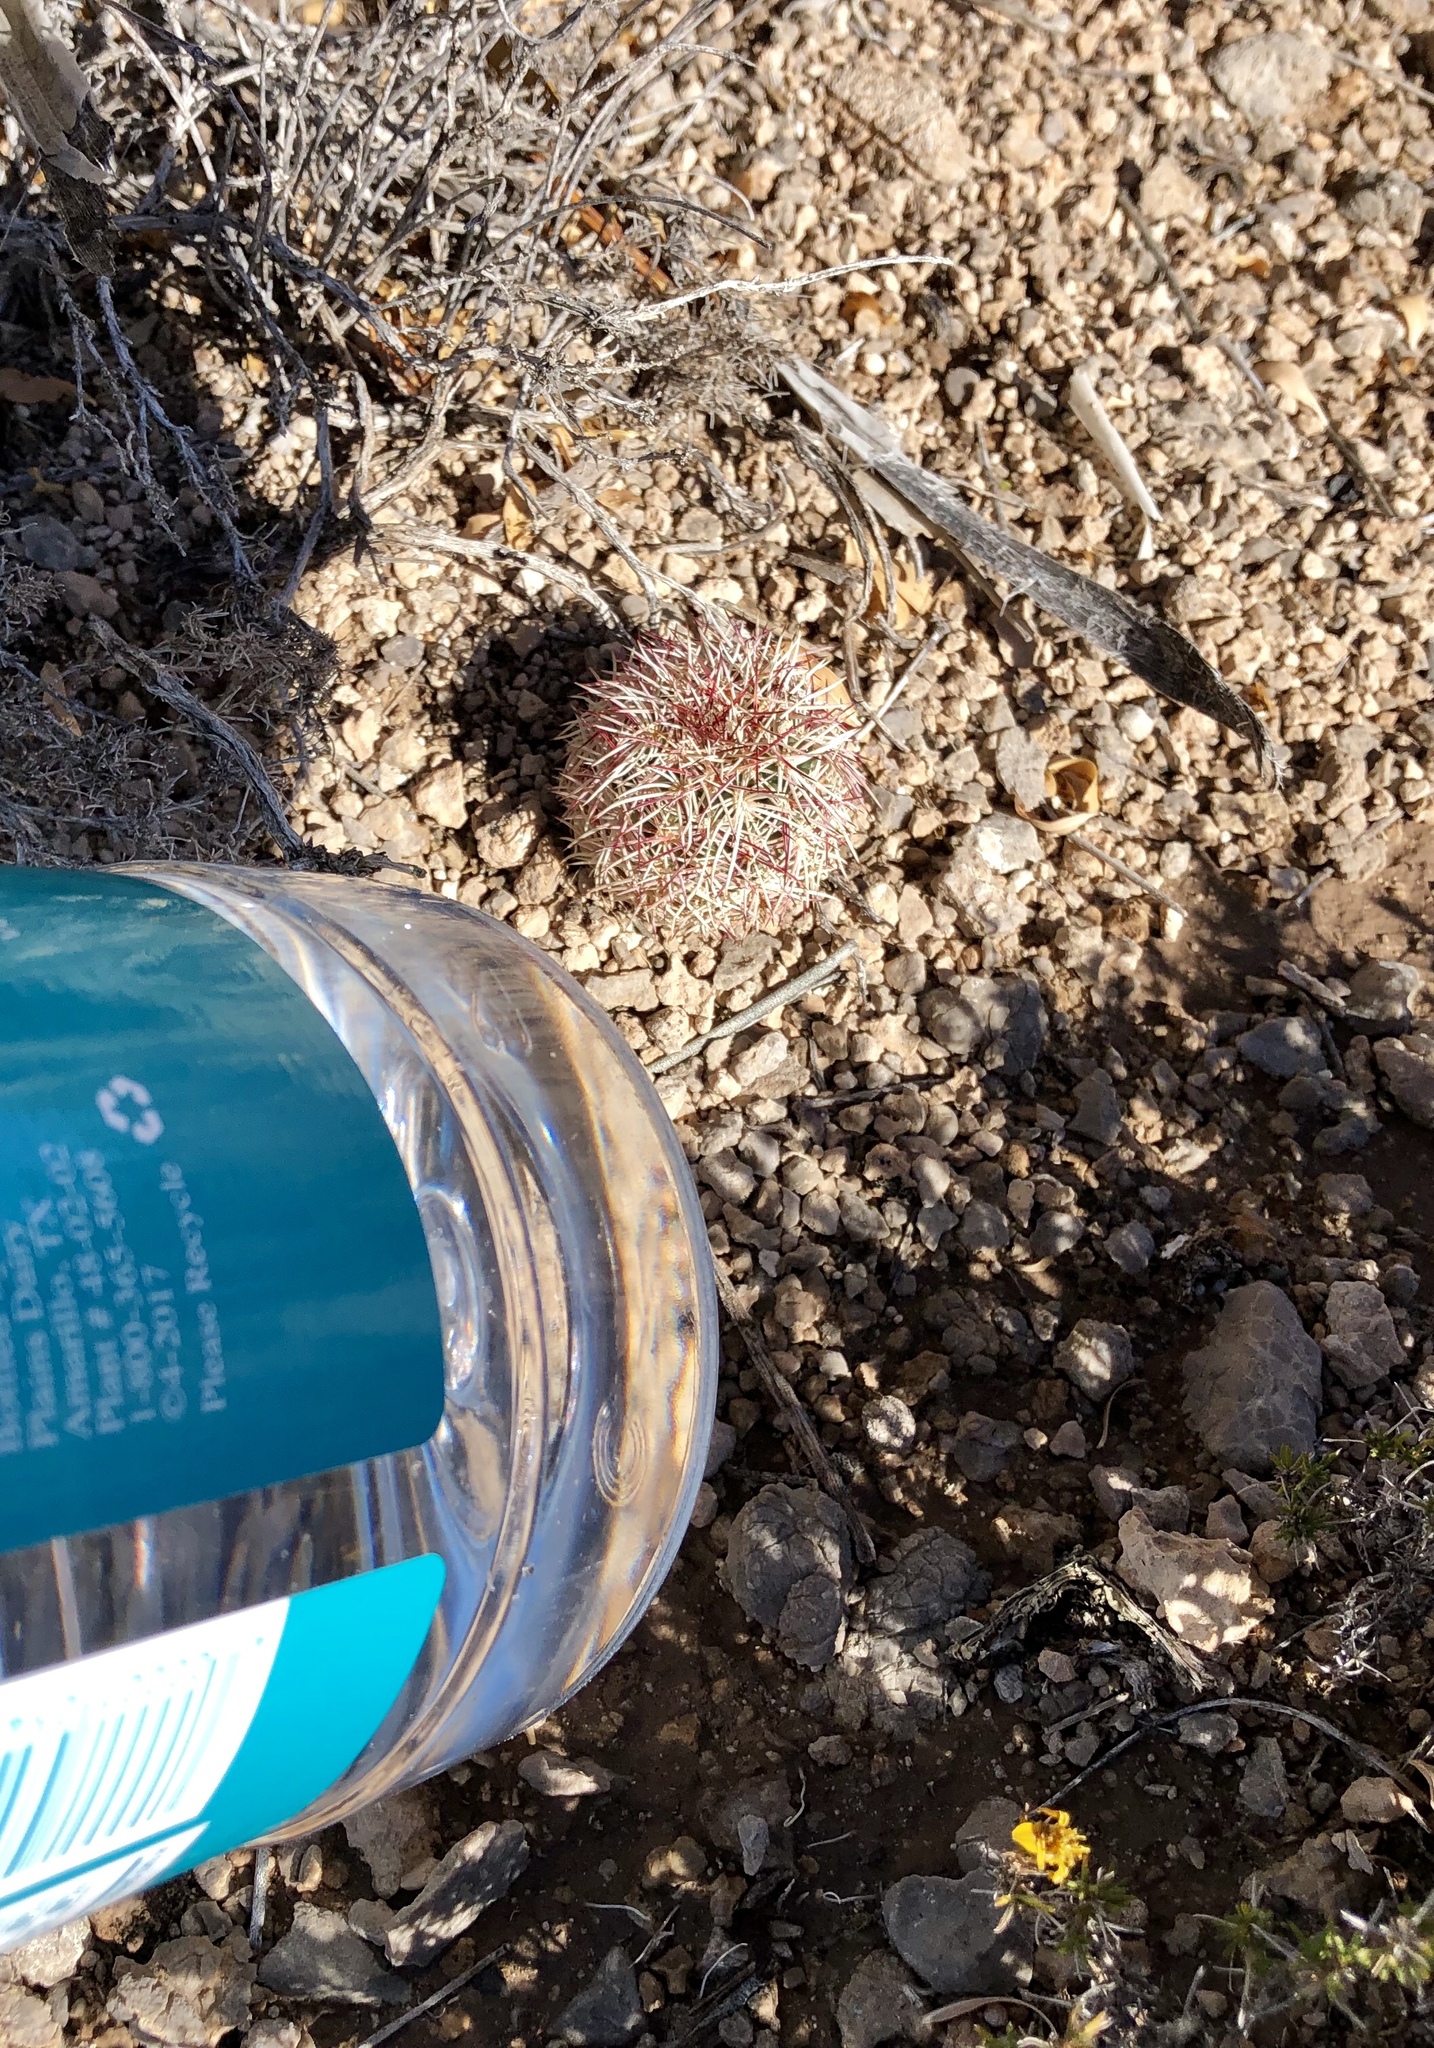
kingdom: Plantae
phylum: Tracheophyta
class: Magnoliopsida
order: Caryophyllales
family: Cactaceae
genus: Echinocereus
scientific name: Echinocereus viridiflorus
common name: Nylon hedgehog cactus
